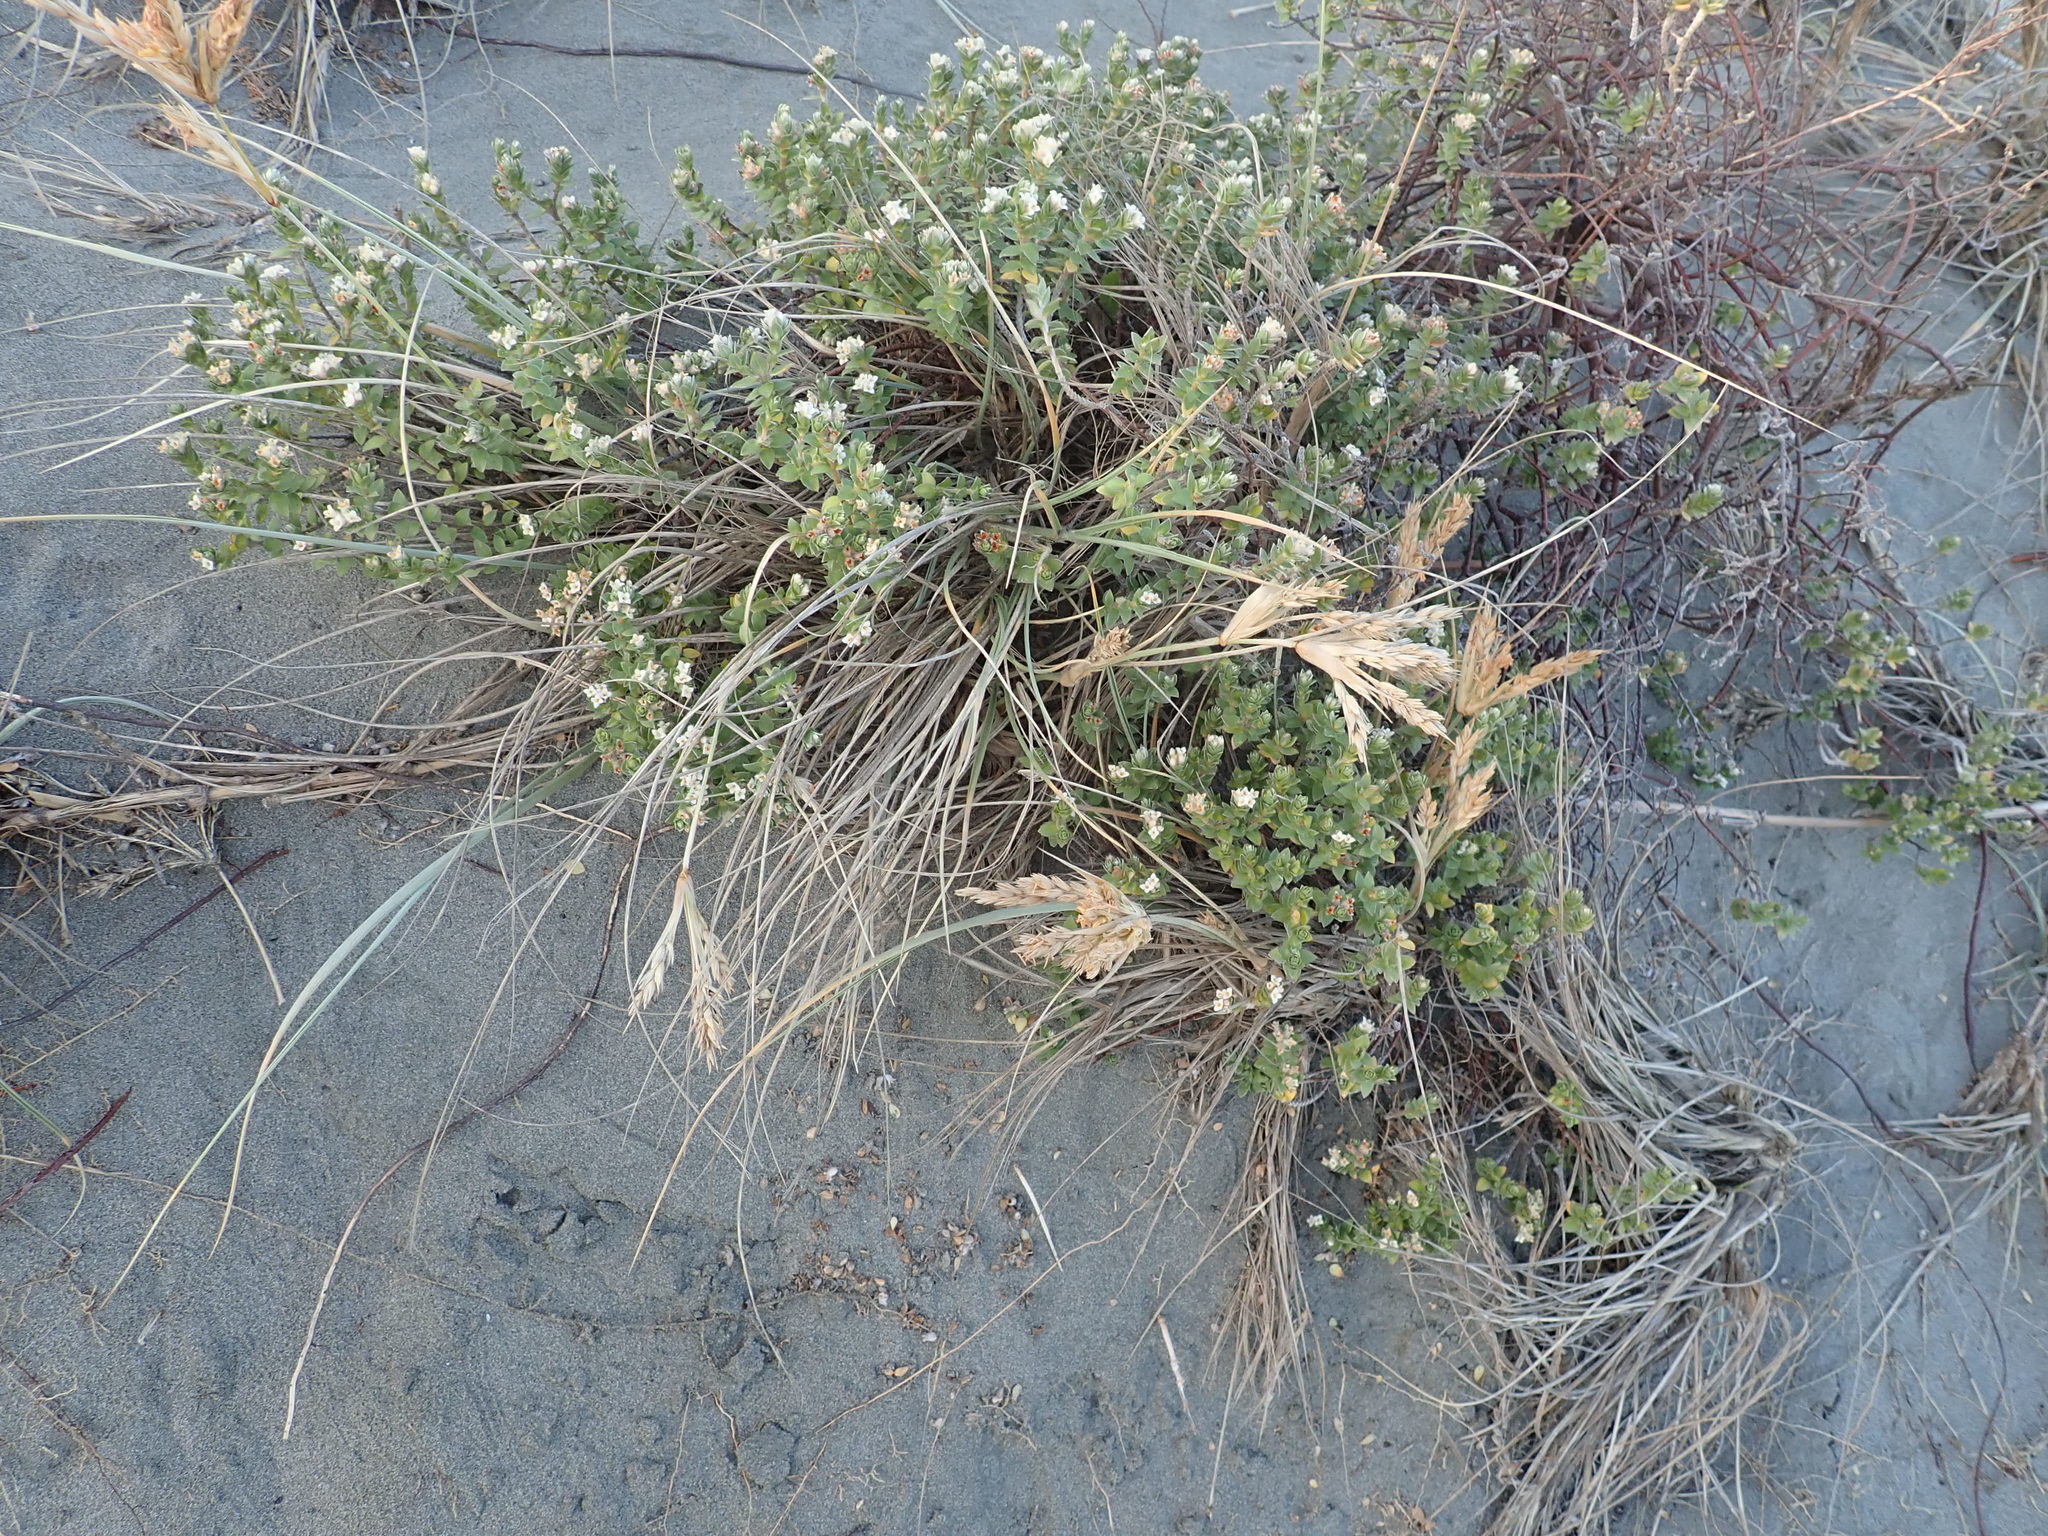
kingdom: Plantae
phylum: Tracheophyta
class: Magnoliopsida
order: Malvales
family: Thymelaeaceae
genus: Pimelea
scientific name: Pimelea villosa
